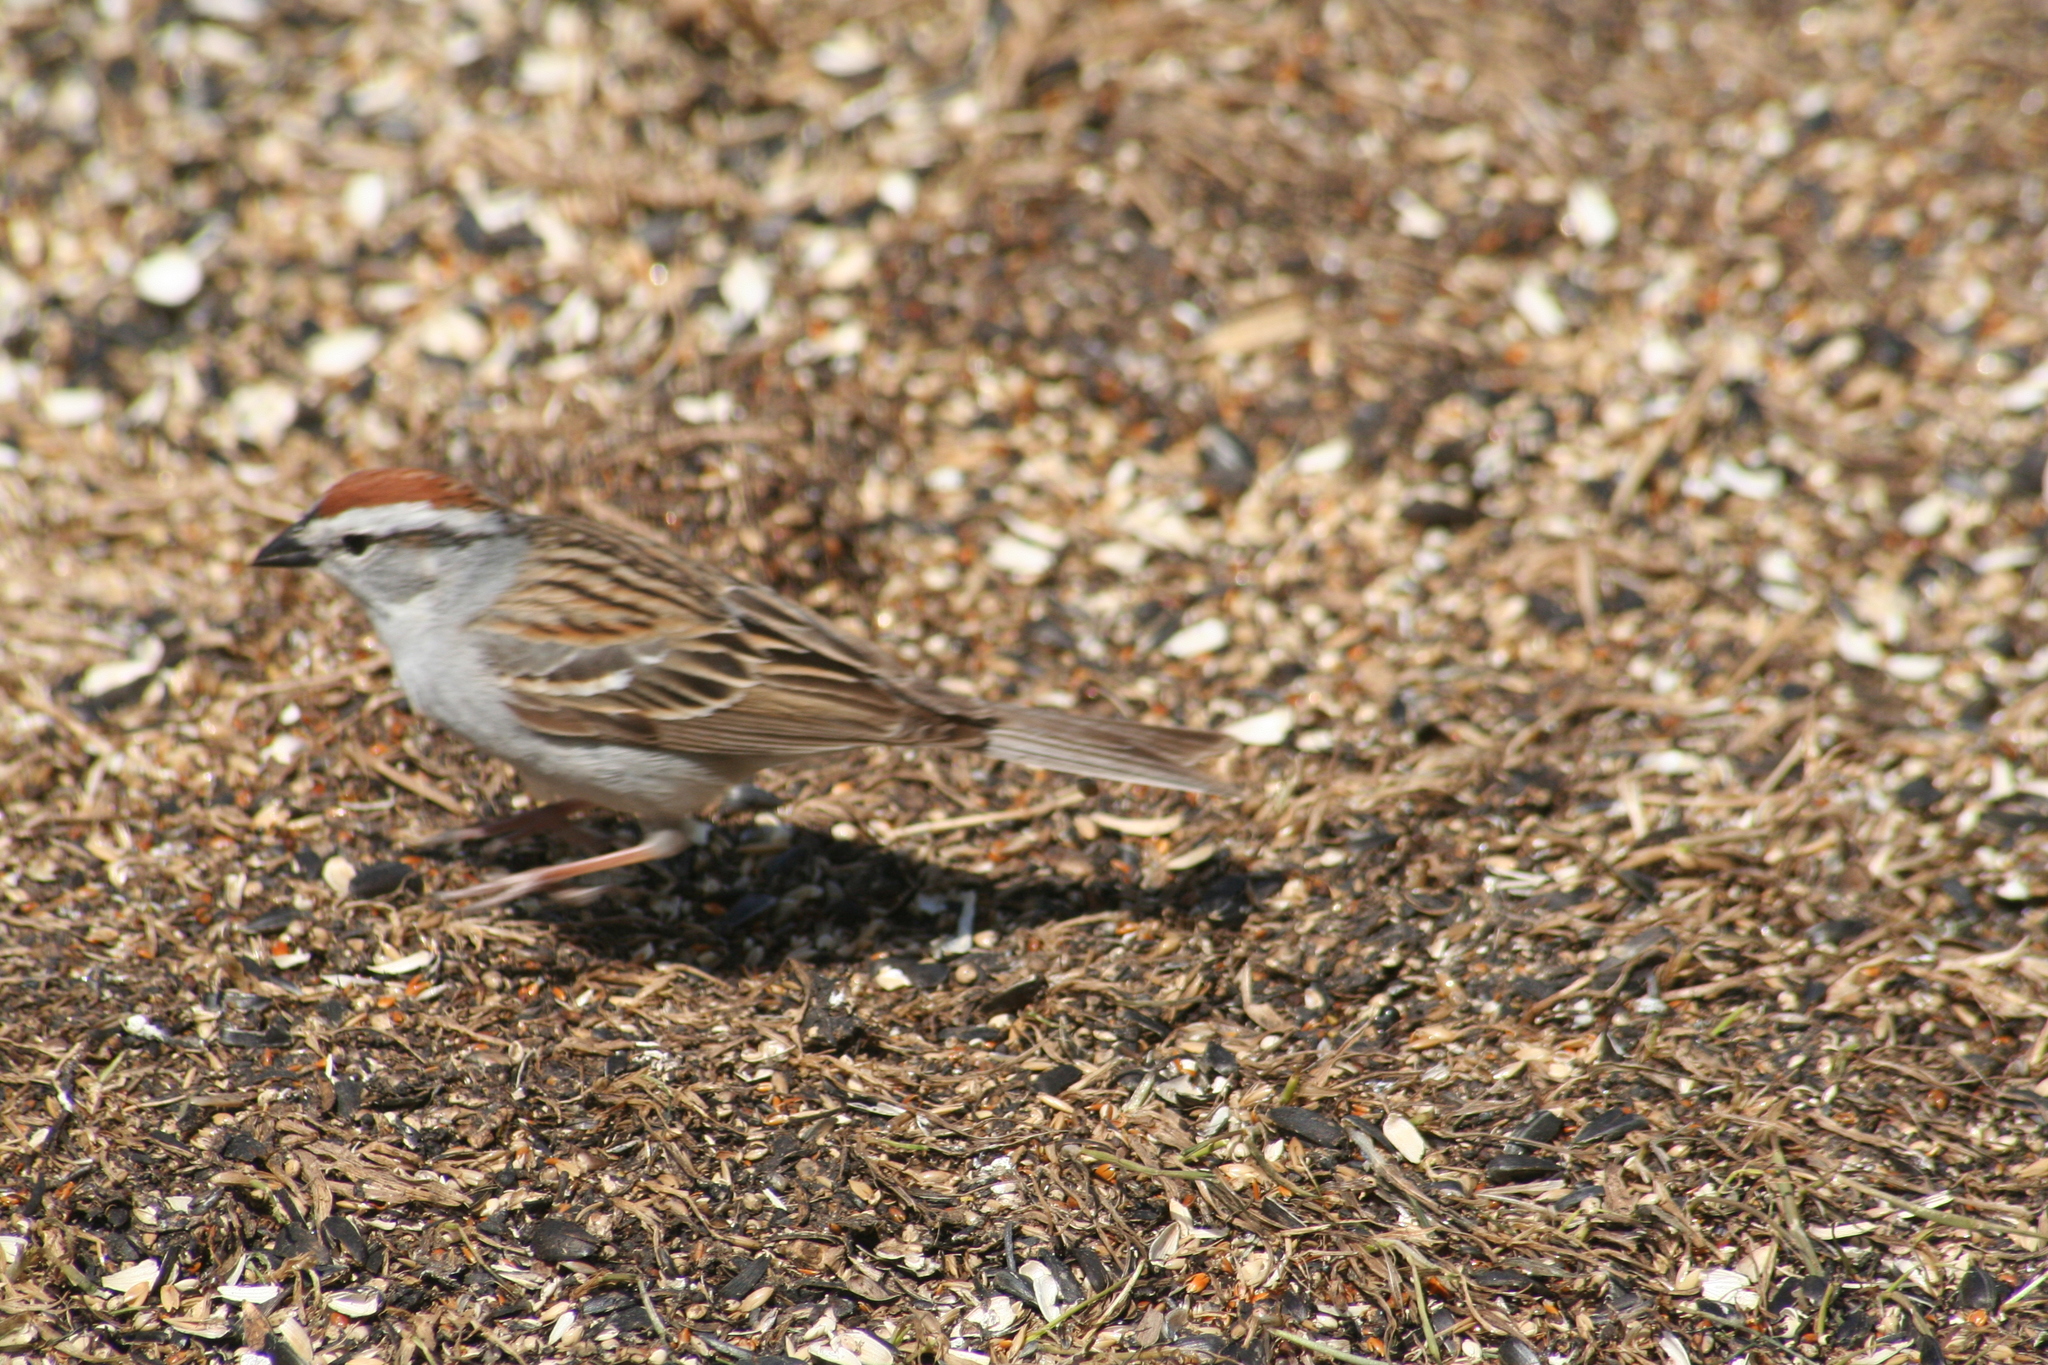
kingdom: Animalia
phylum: Chordata
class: Aves
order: Passeriformes
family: Passerellidae
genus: Spizella
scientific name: Spizella passerina
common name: Chipping sparrow
